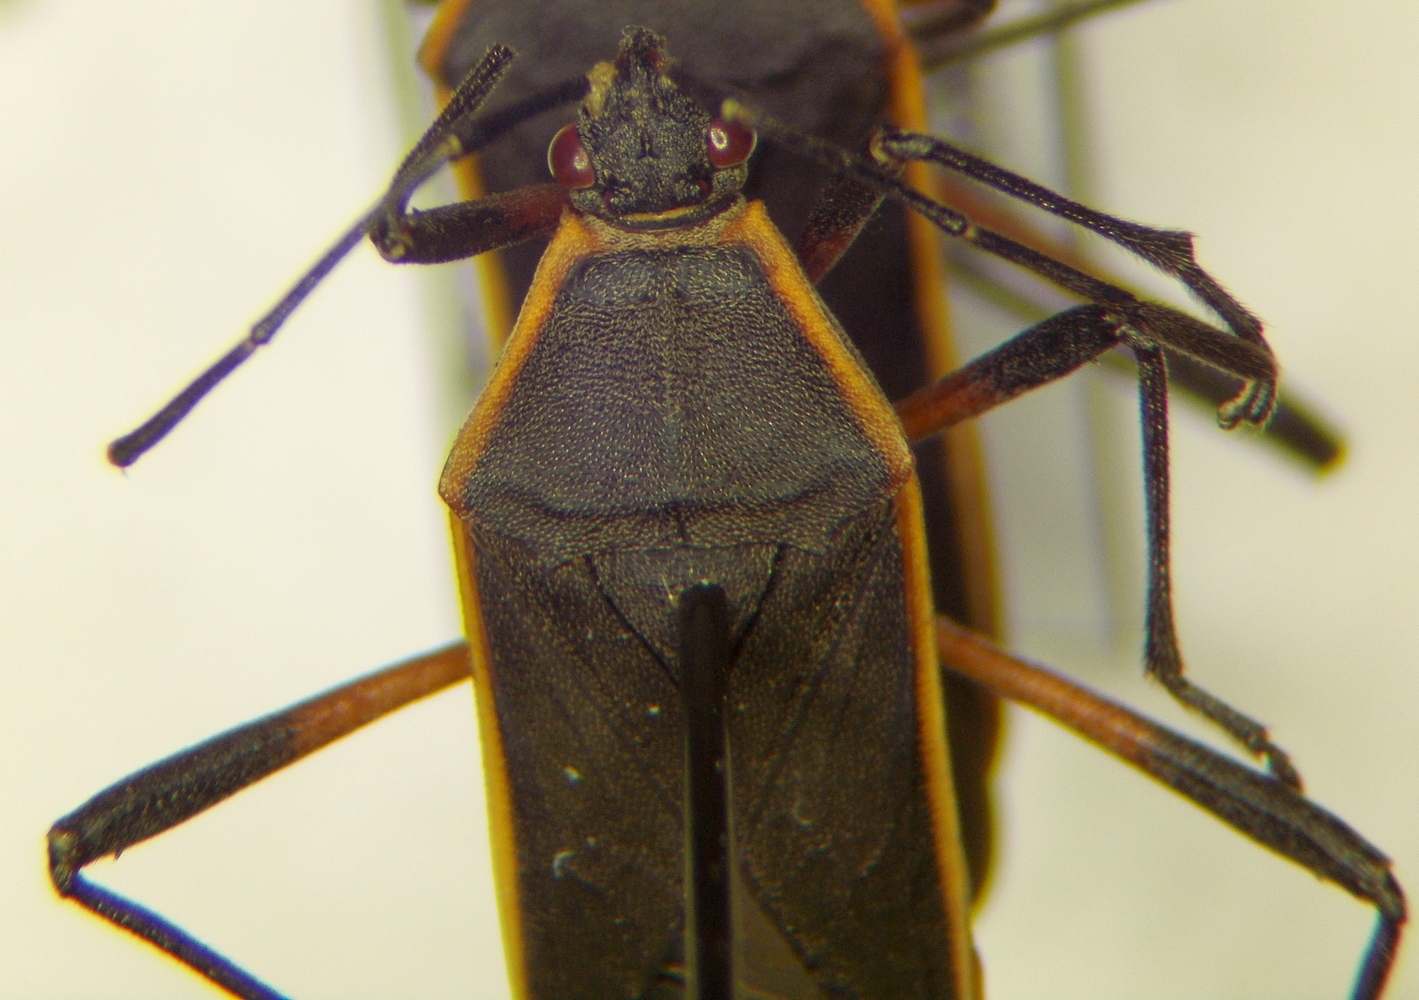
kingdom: Animalia
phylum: Arthropoda
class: Insecta
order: Hemiptera
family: Coreidae
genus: Staluptus
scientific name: Staluptus marginalis
